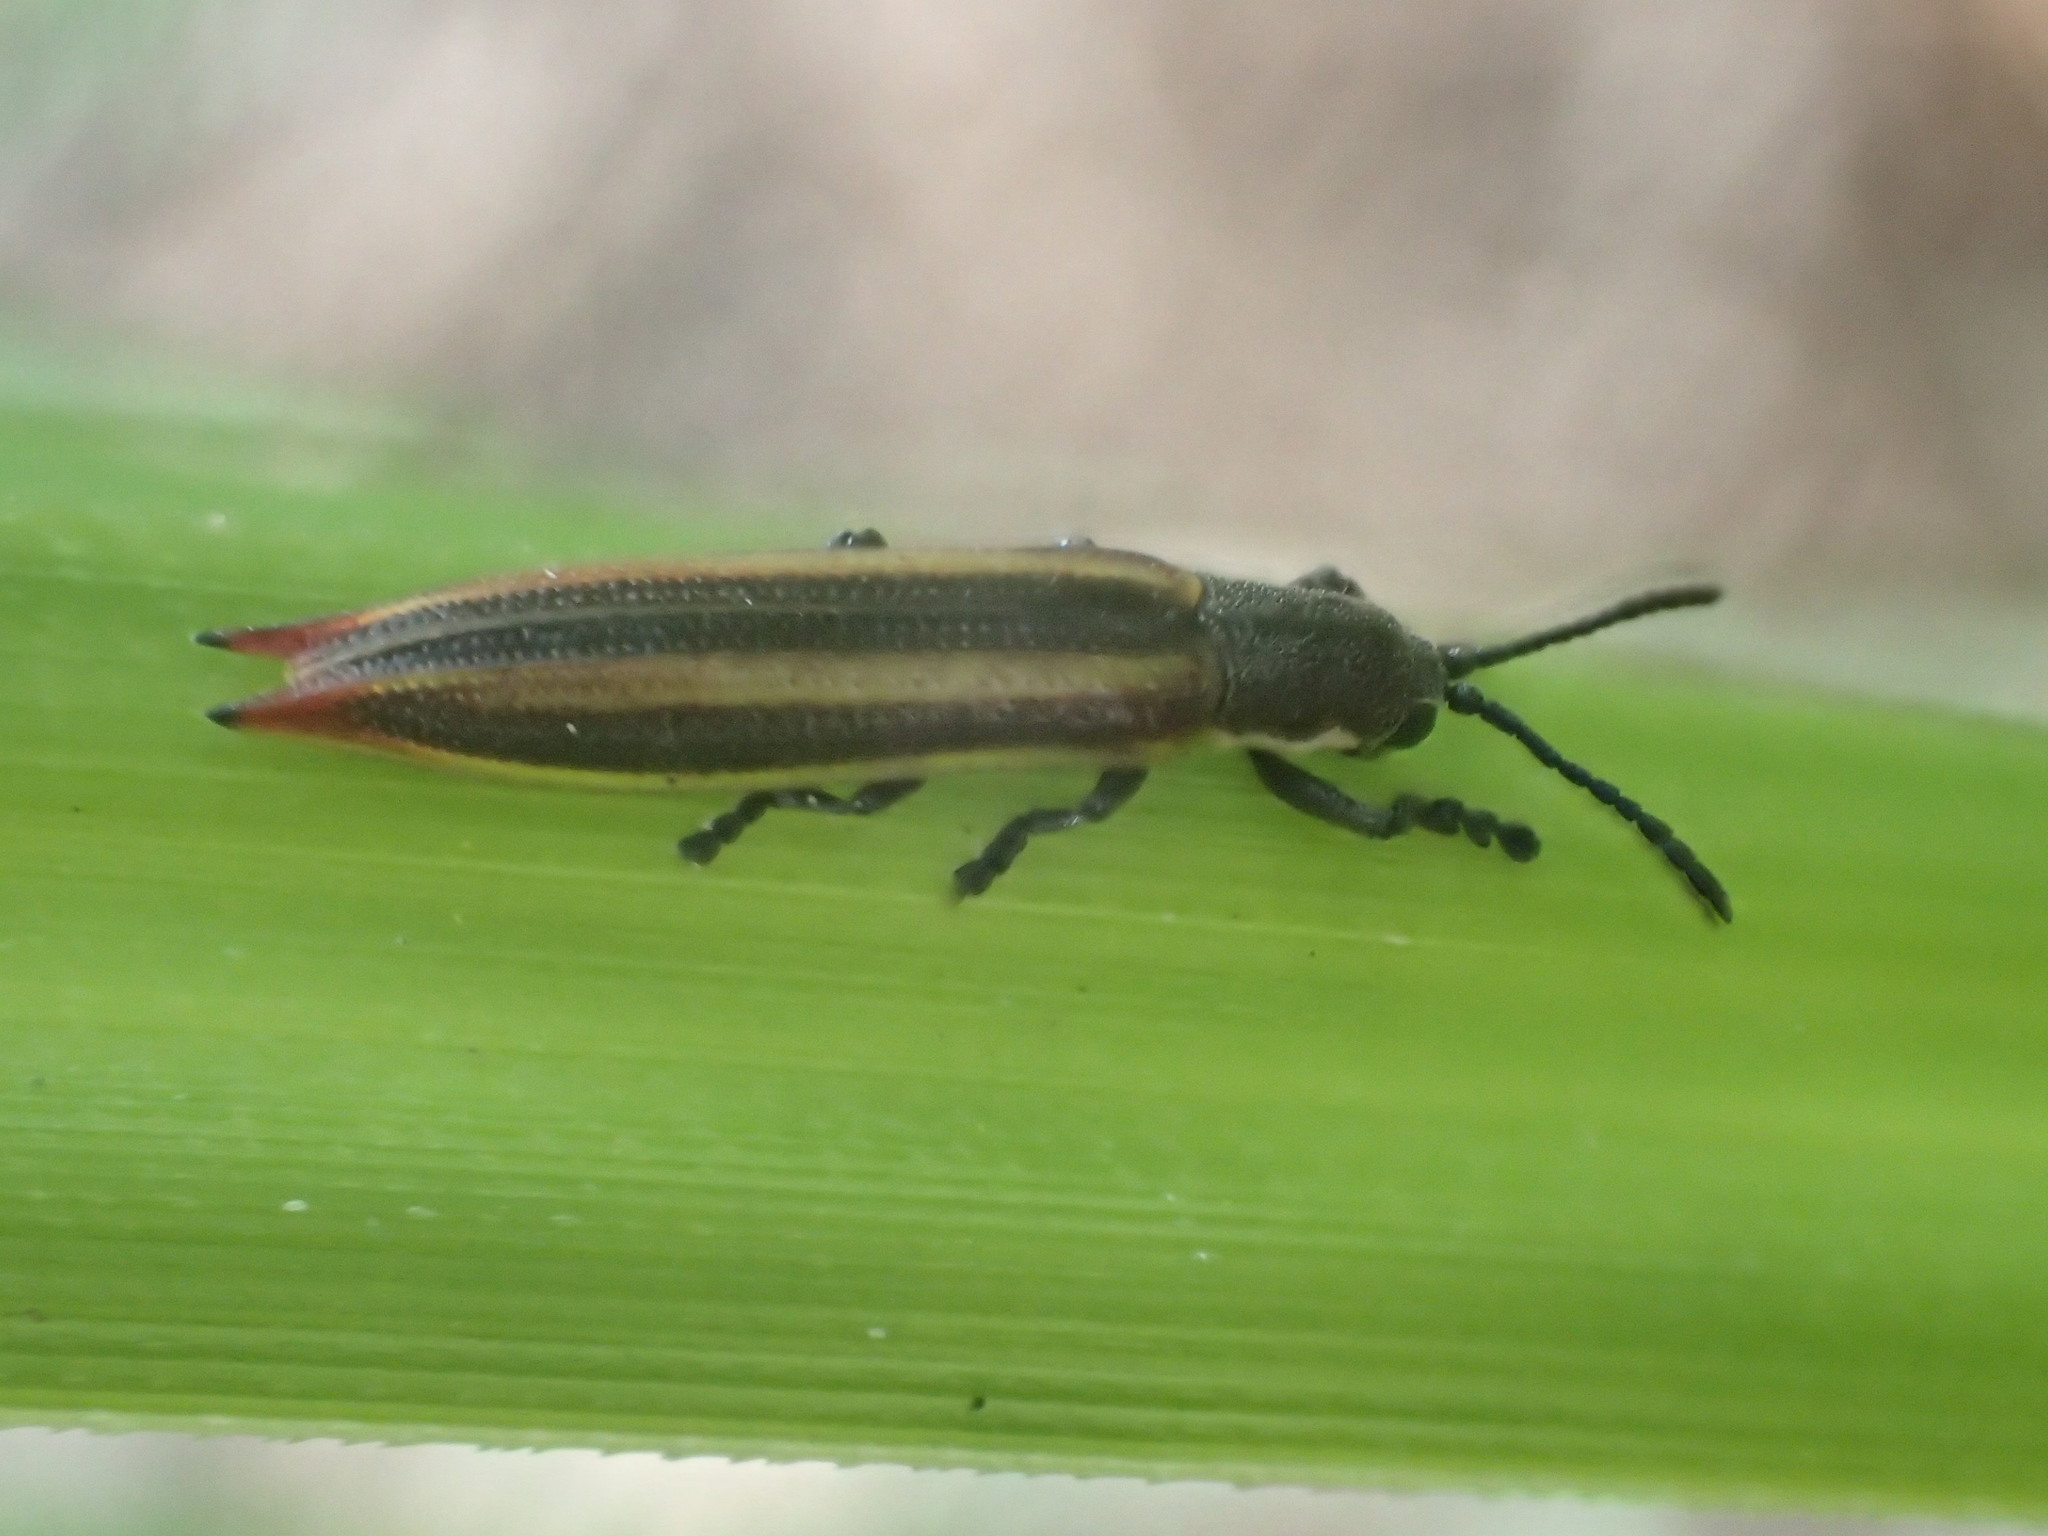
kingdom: Animalia
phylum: Arthropoda
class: Insecta
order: Coleoptera
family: Chrysomelidae
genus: Eurispa
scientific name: Eurispa vittata
